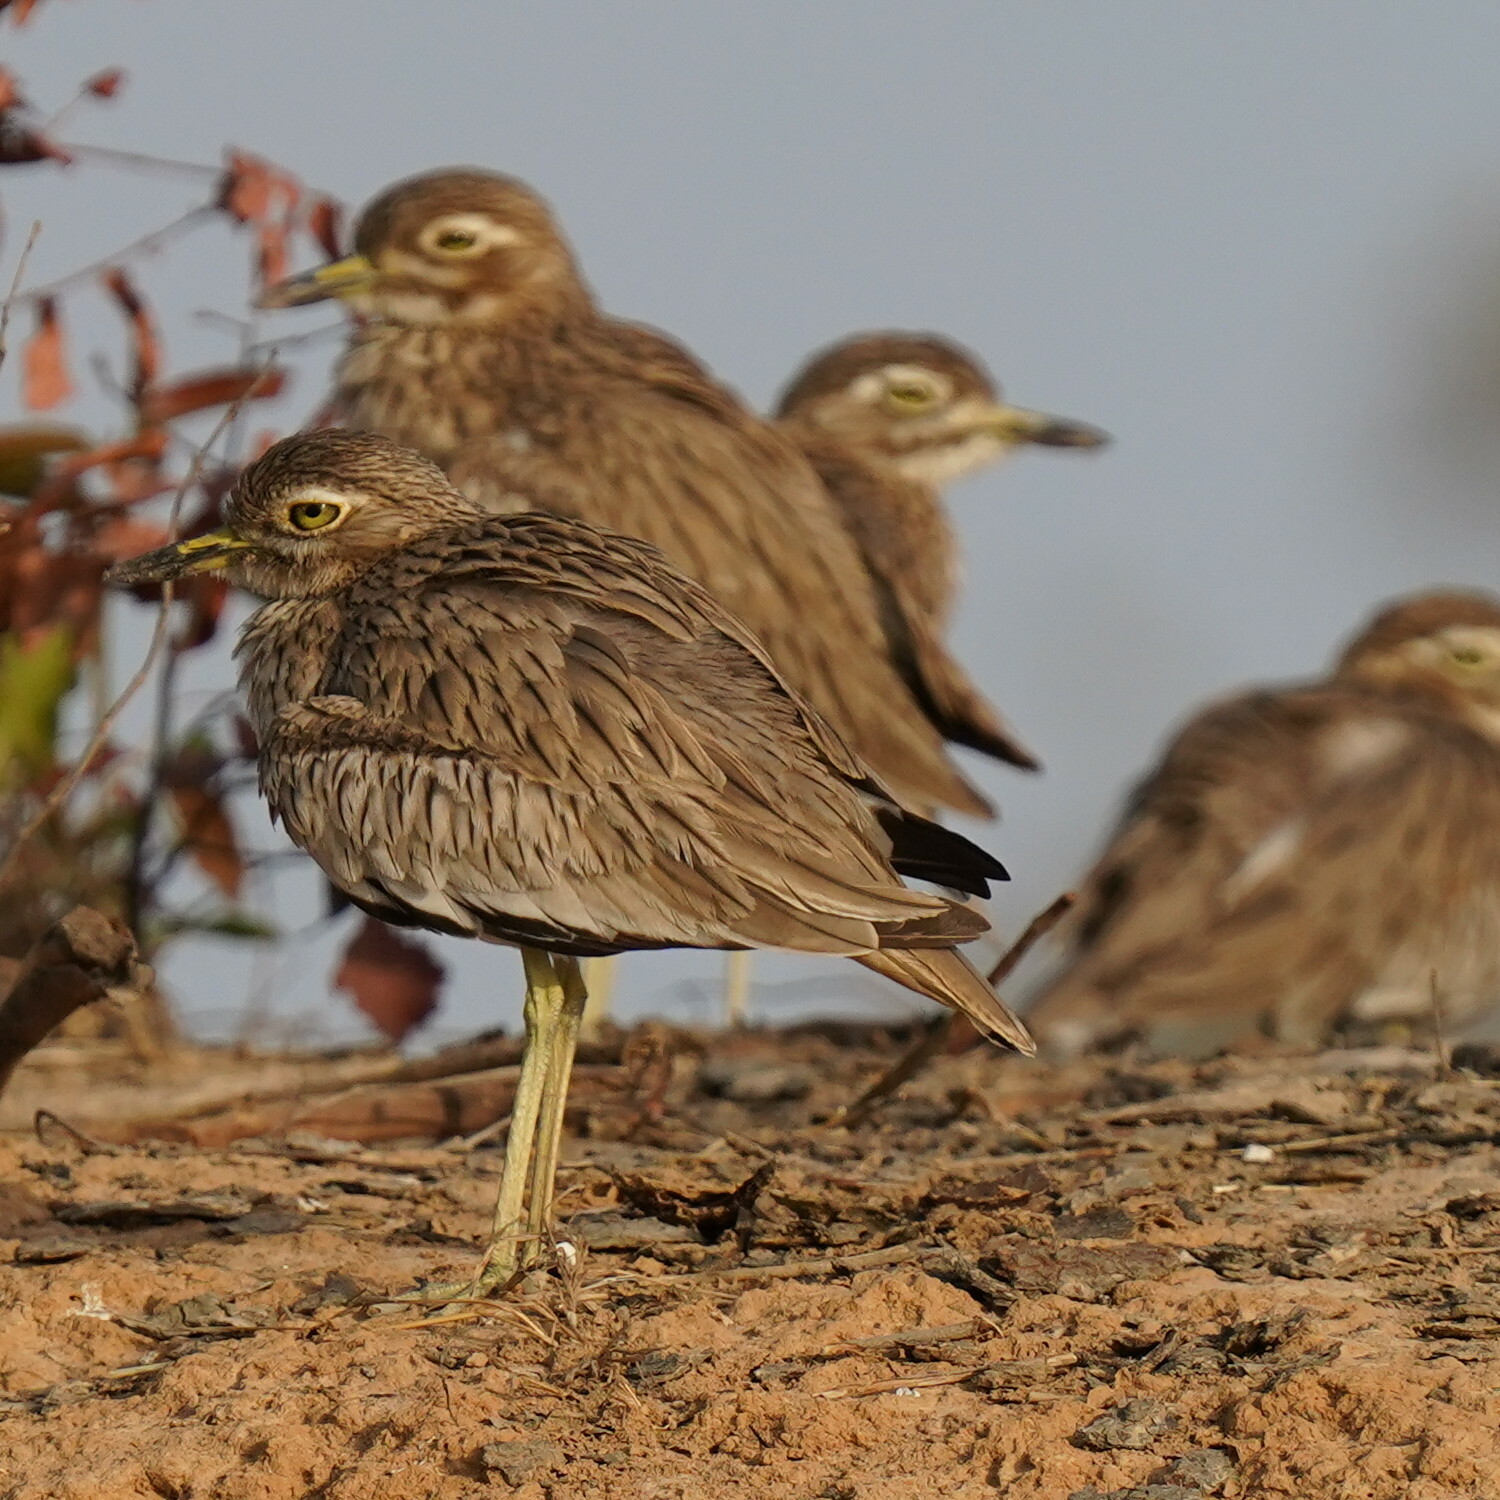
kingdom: Animalia
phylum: Chordata
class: Aves
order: Charadriiformes
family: Burhinidae
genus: Burhinus
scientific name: Burhinus senegalensis
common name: Senegal thick-knee
